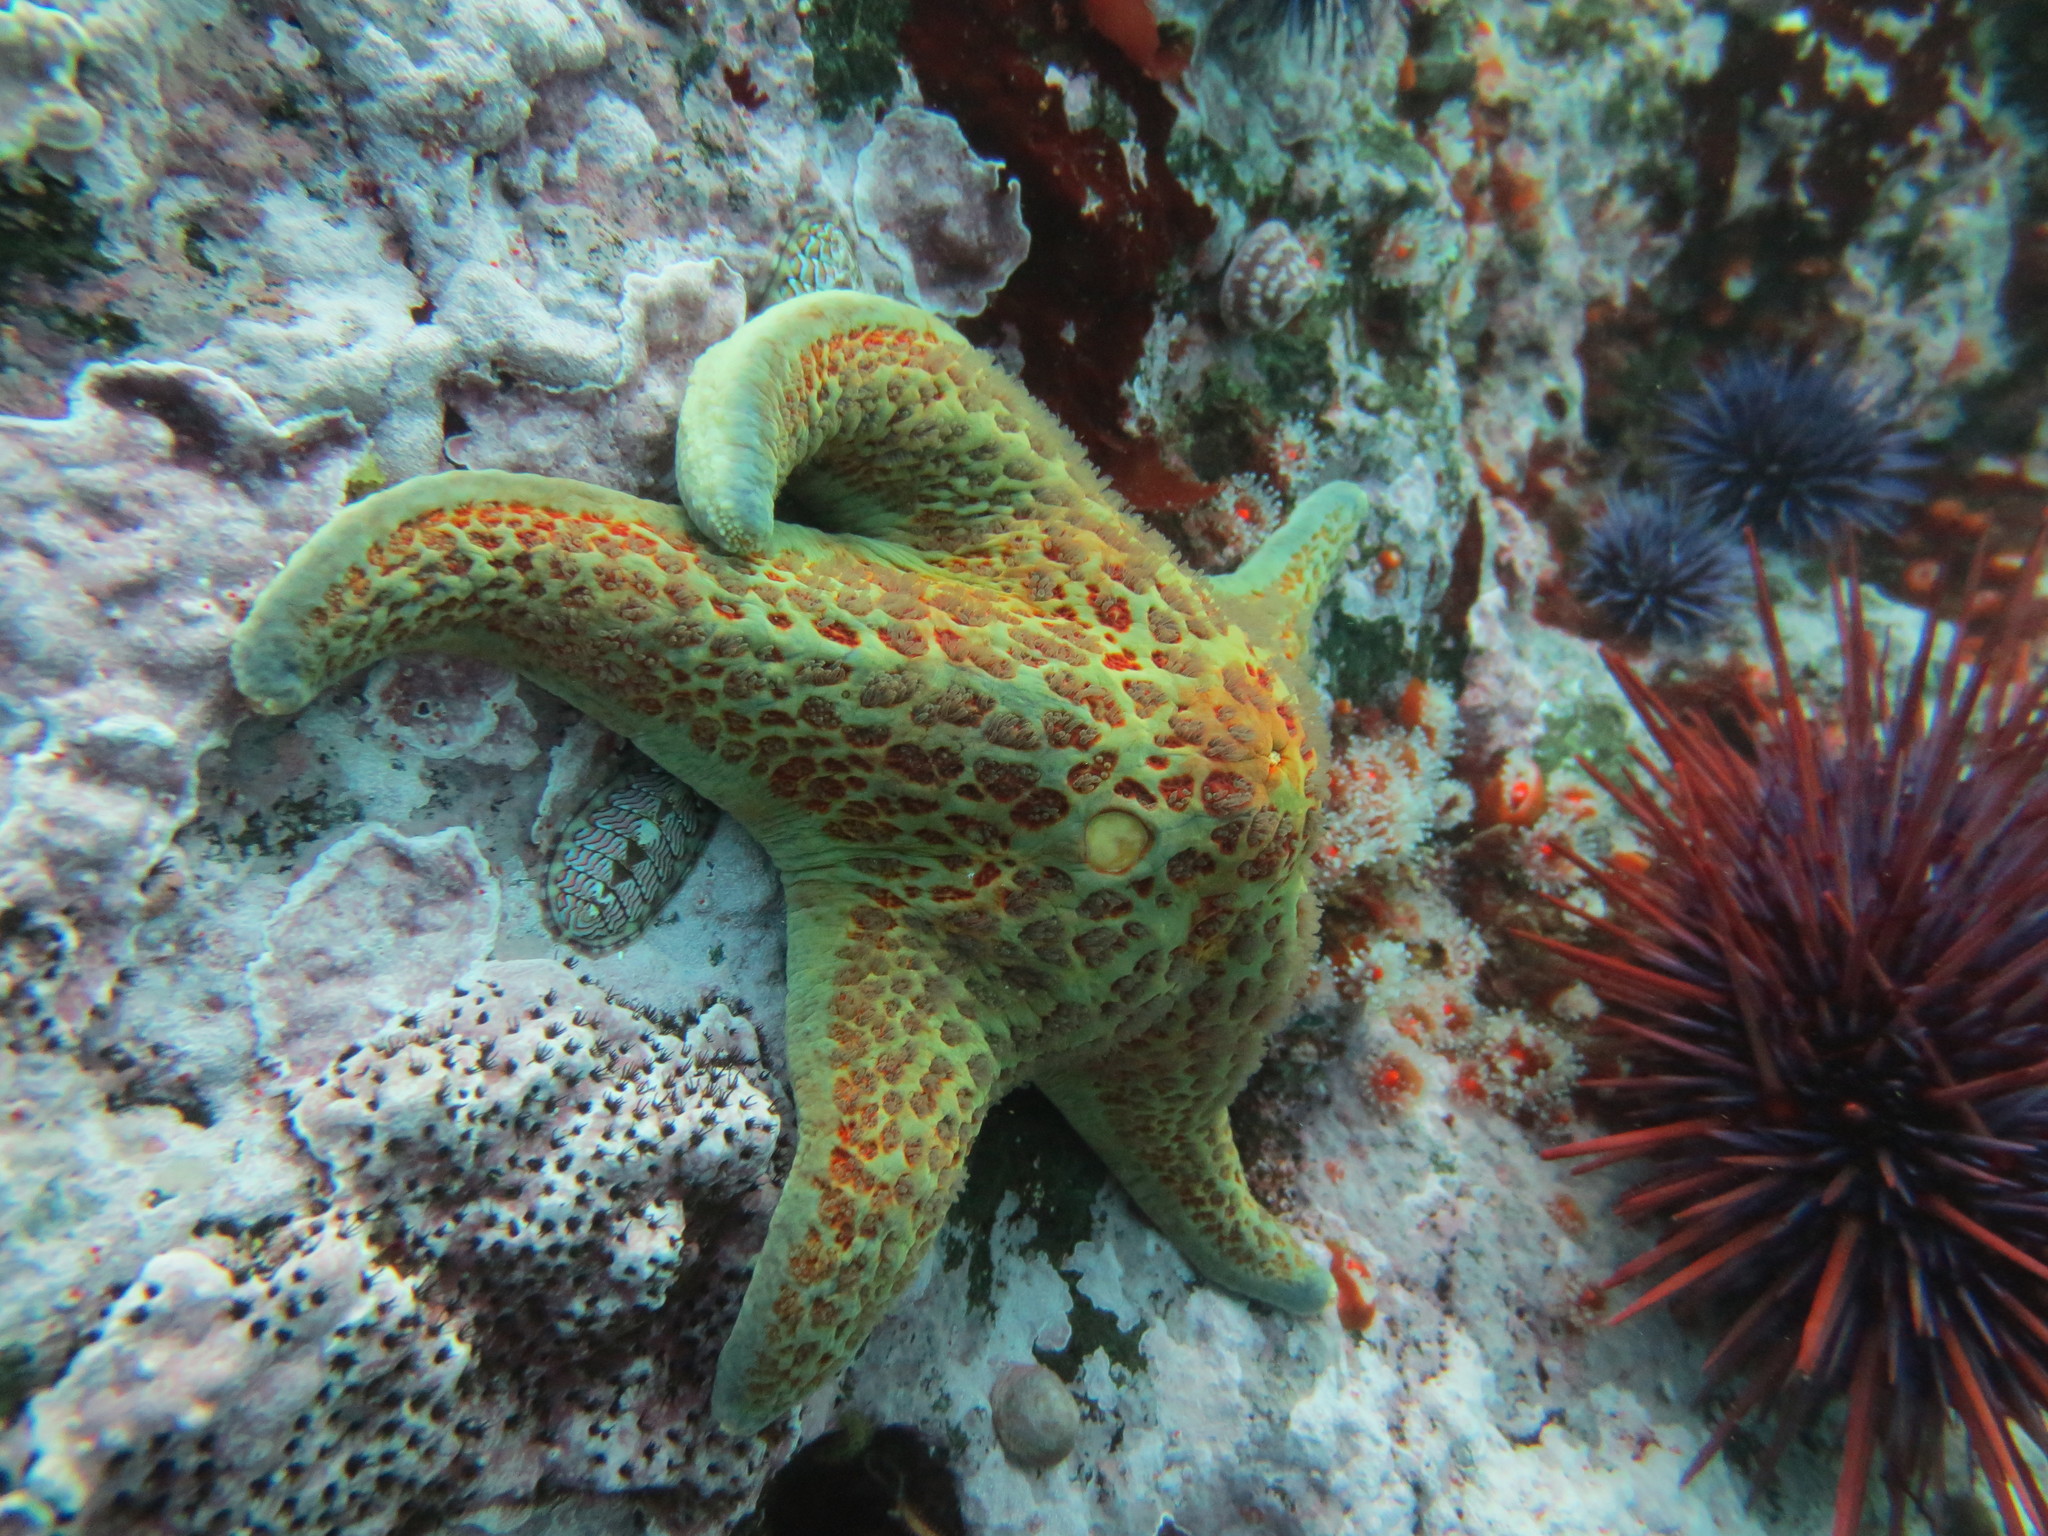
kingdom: Animalia
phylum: Echinodermata
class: Asteroidea
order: Valvatida
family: Asteropseidae
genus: Dermasterias
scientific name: Dermasterias imbricata
